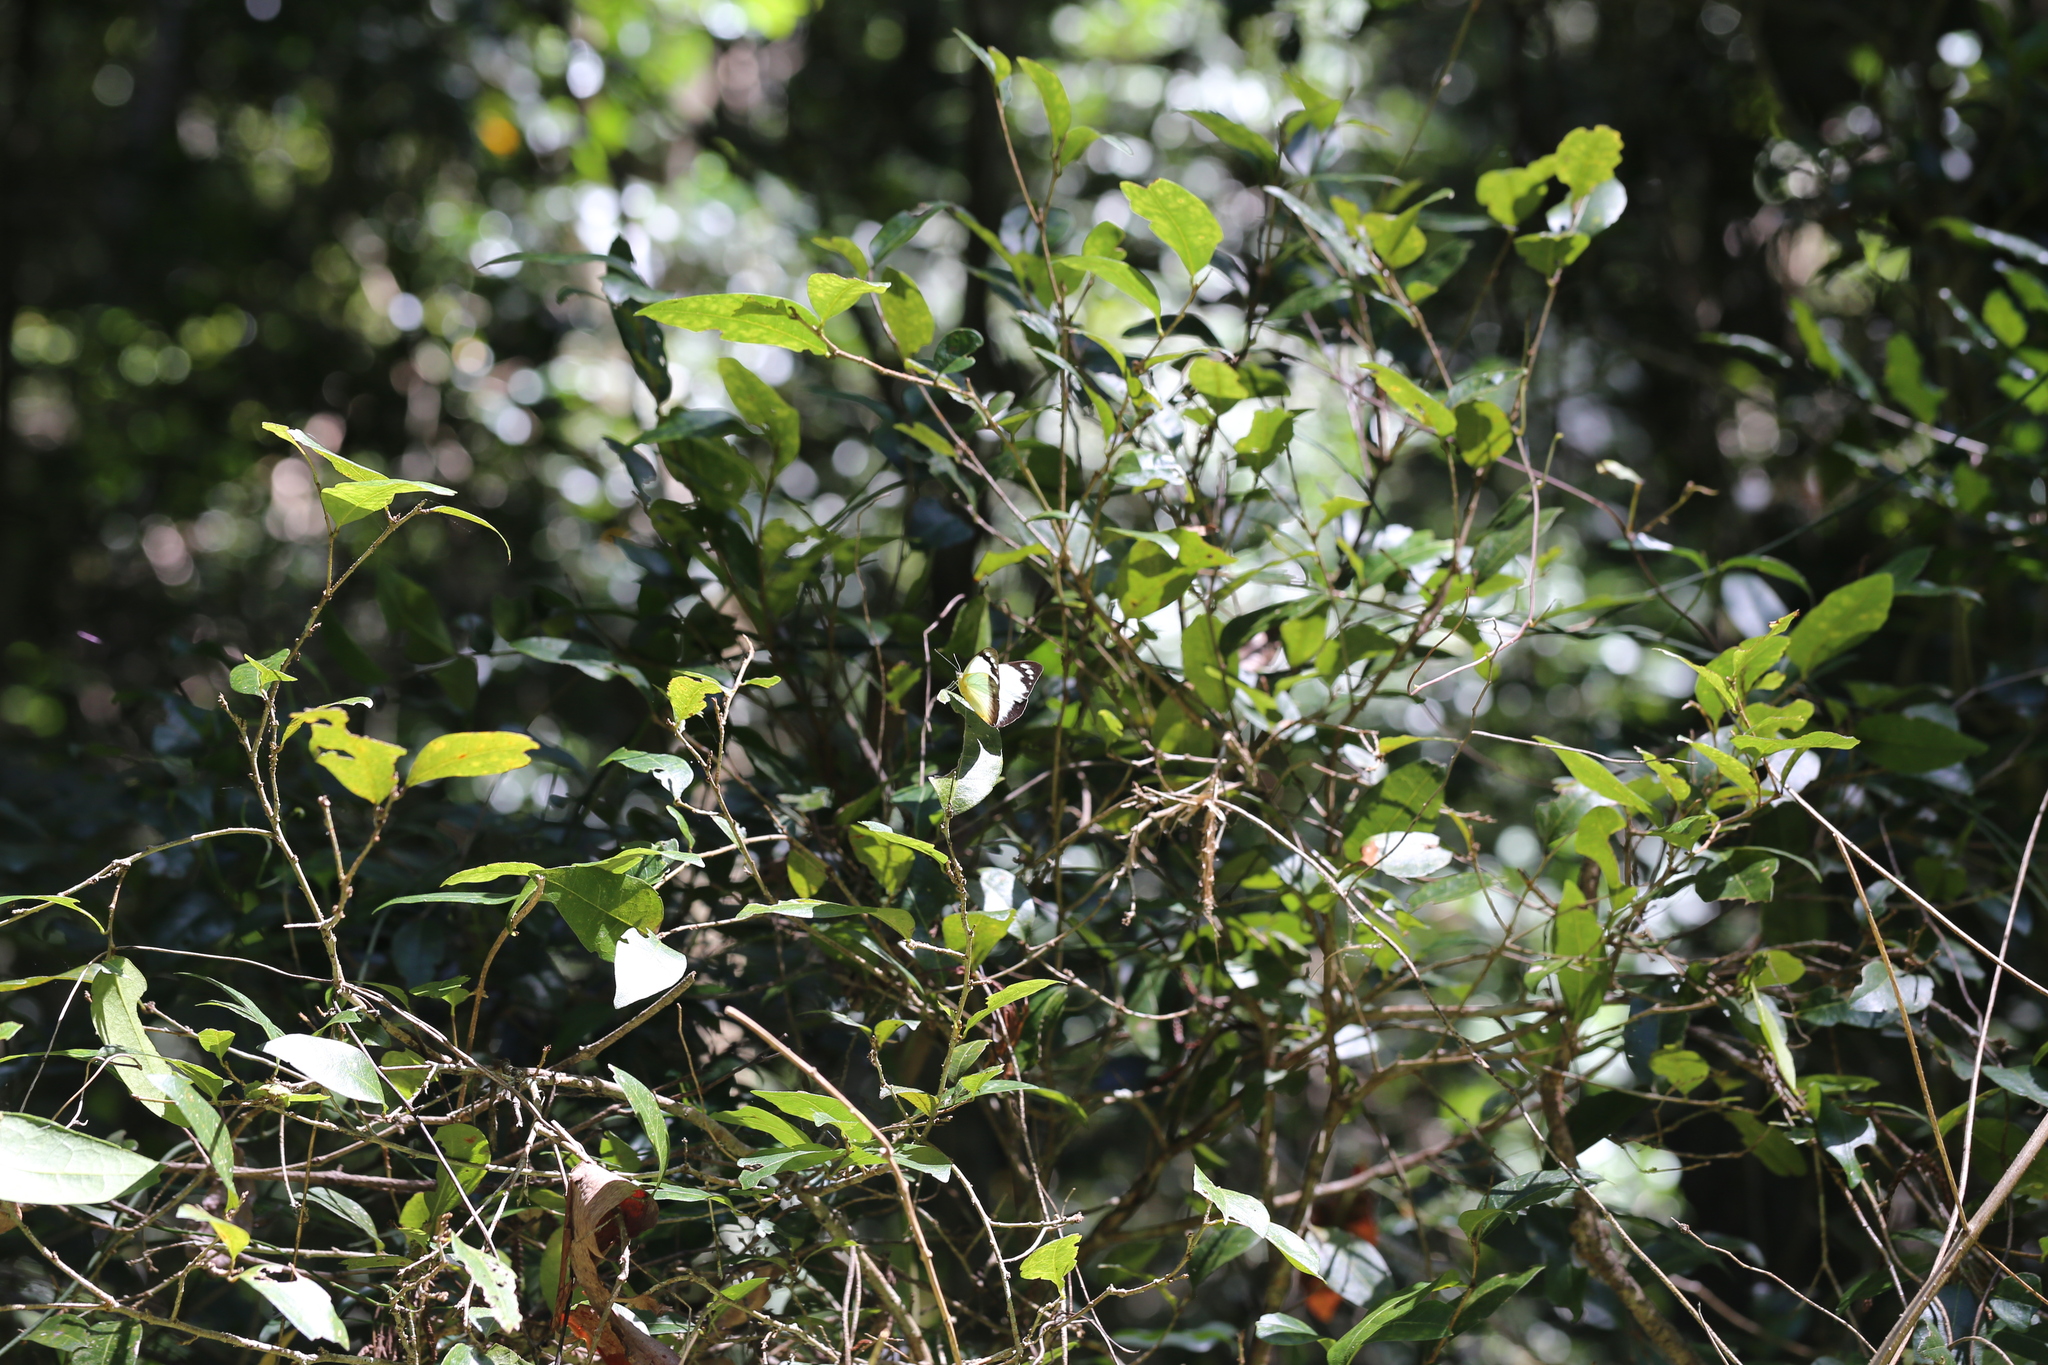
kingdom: Animalia
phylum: Arthropoda
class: Insecta
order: Lepidoptera
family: Pieridae
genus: Appias
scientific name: Appias paulina
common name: Ceylon lesser albatross
